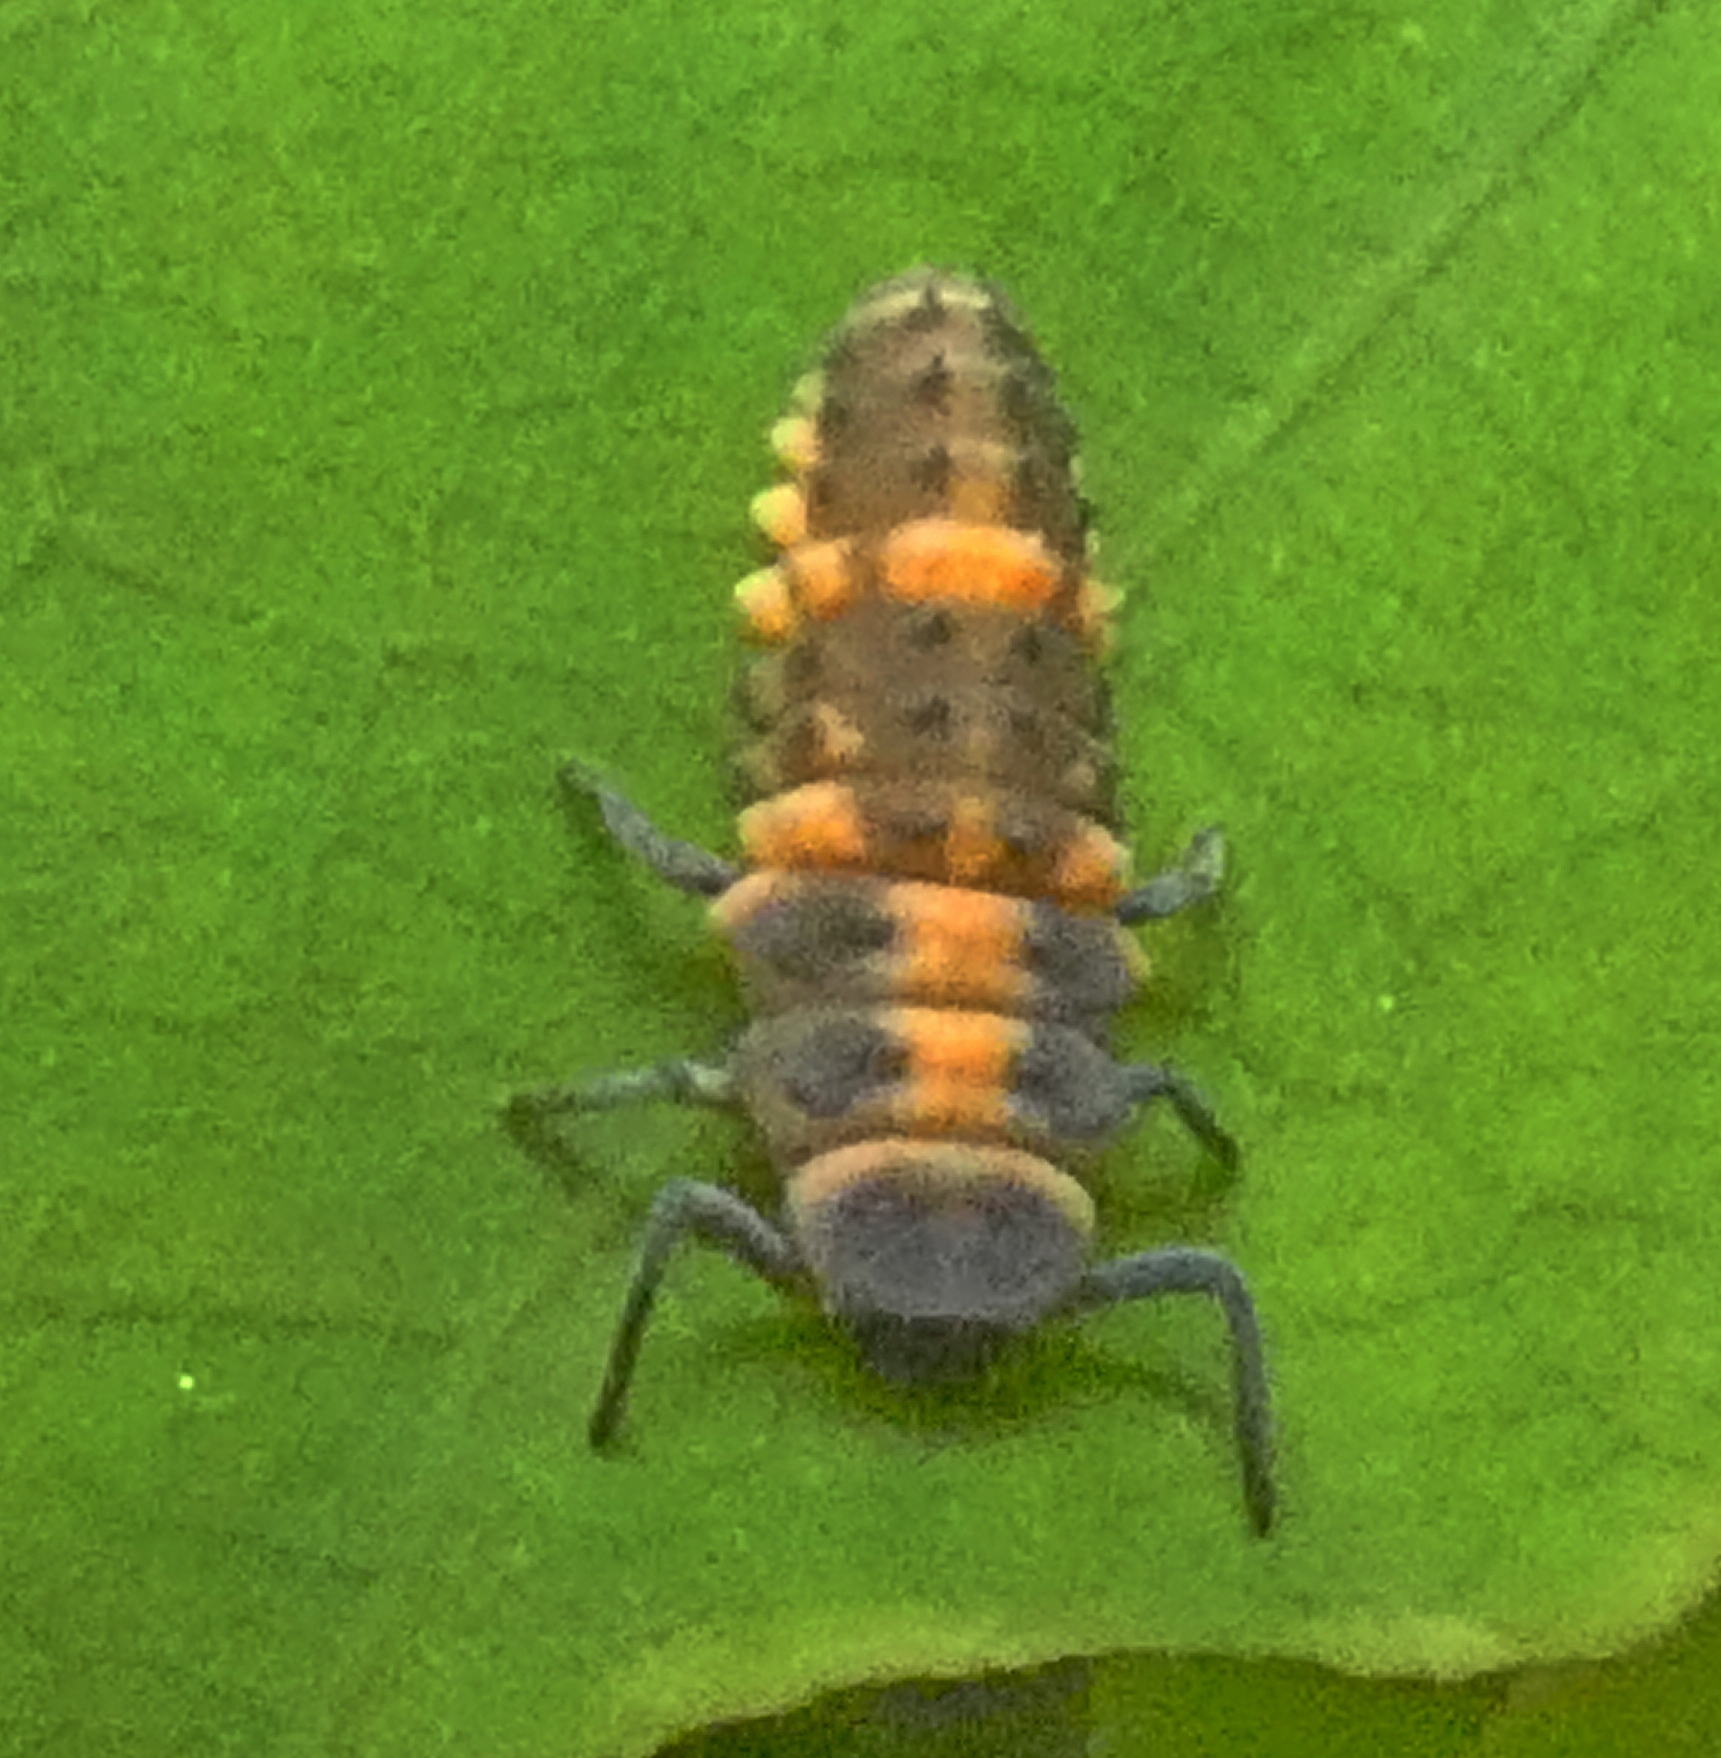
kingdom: Animalia
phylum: Arthropoda
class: Insecta
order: Coleoptera
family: Coccinellidae
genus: Coelophora
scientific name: Coelophora inaequalis
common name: Common australian lady beetle
